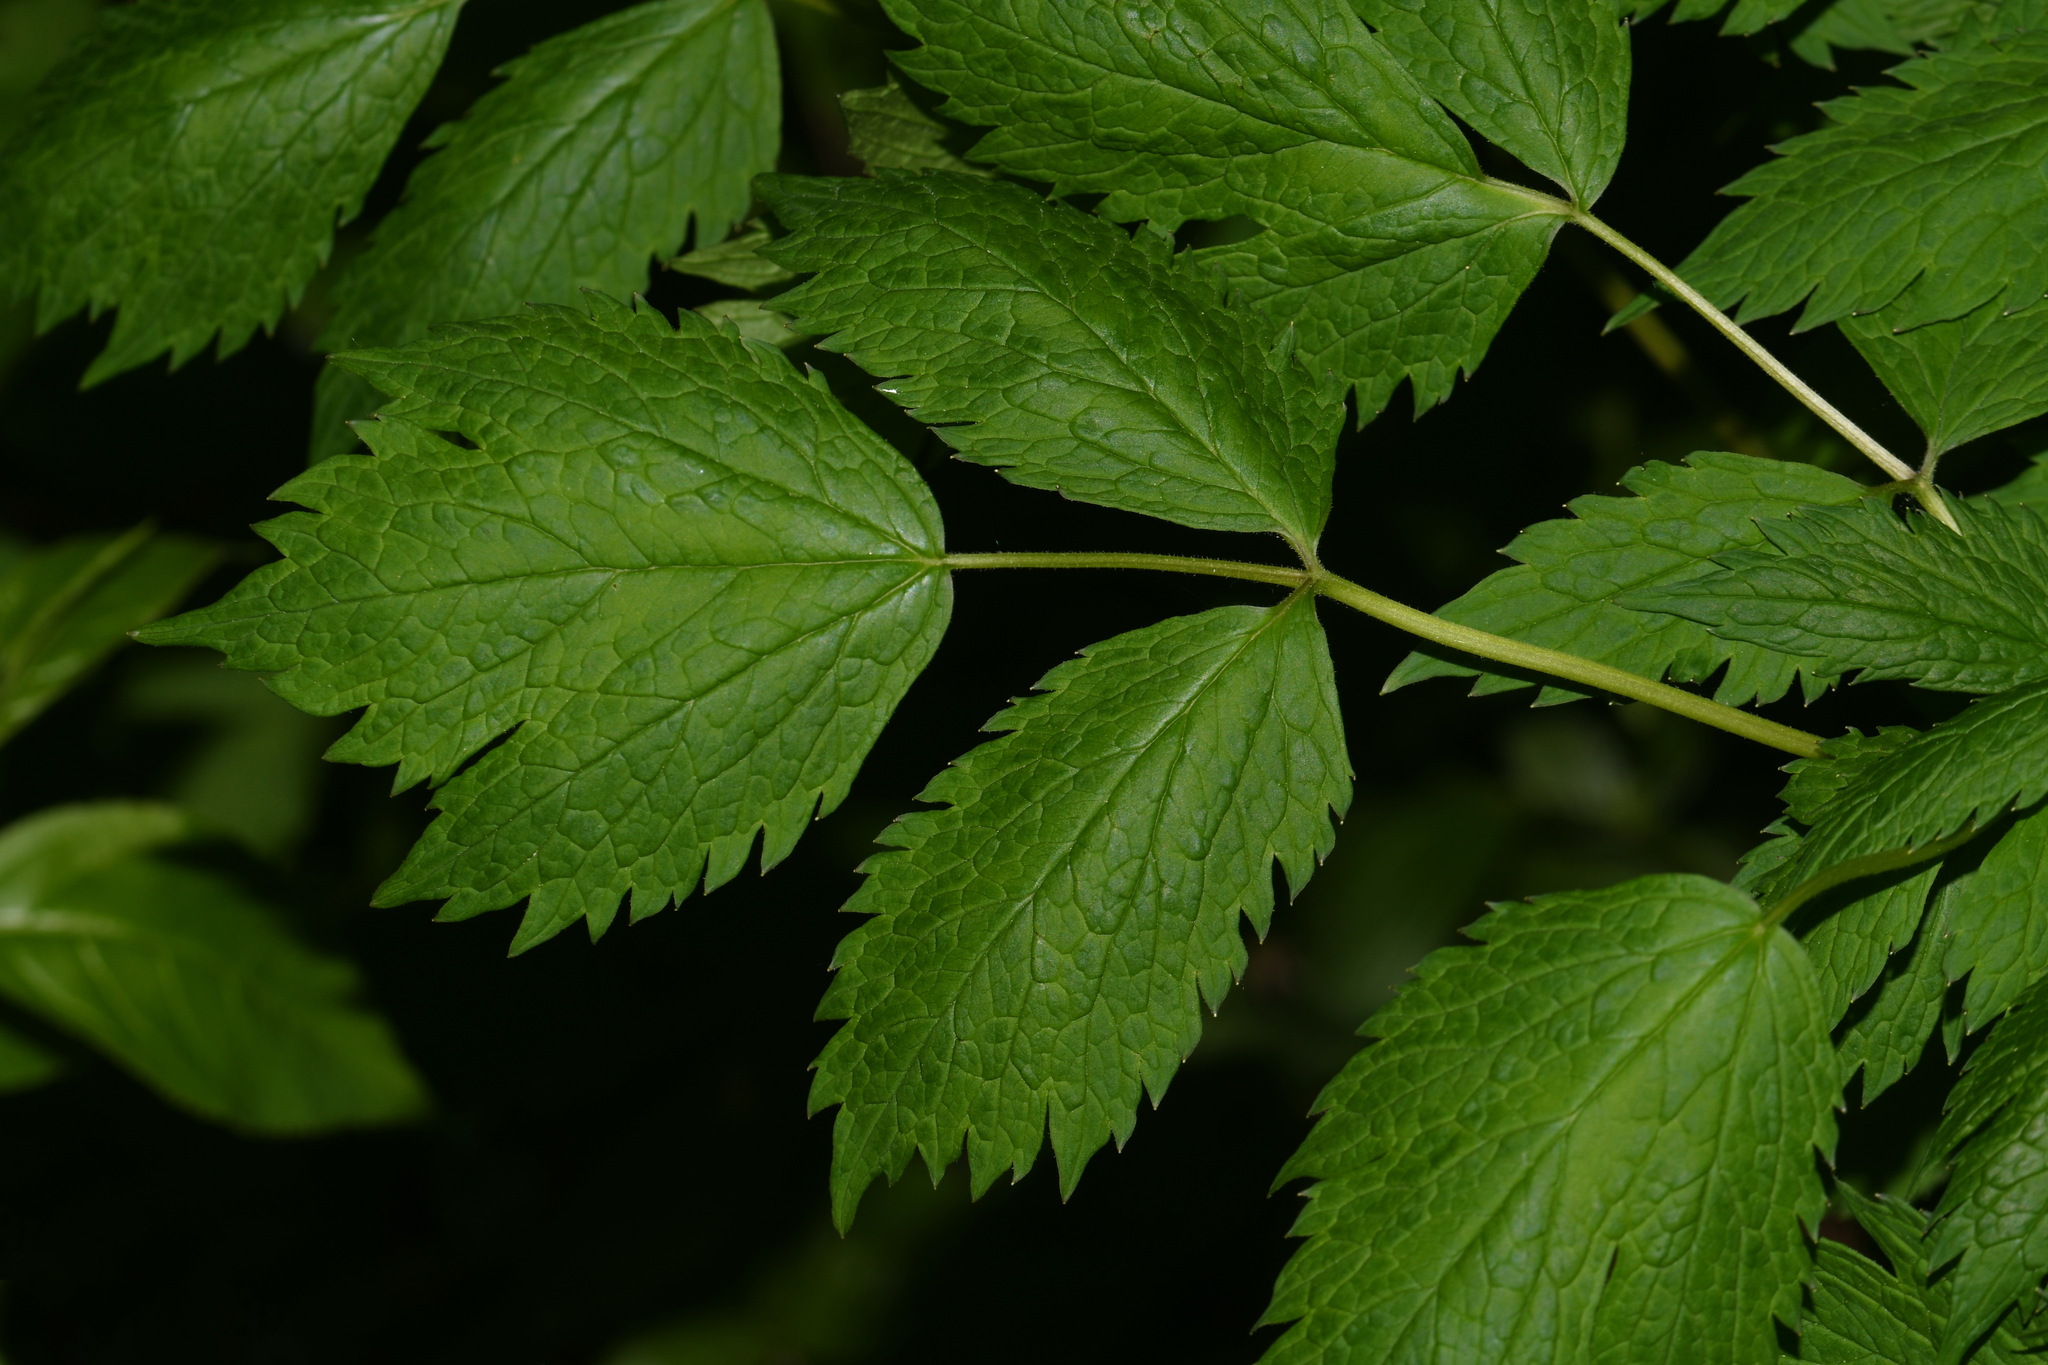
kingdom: Plantae
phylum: Tracheophyta
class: Magnoliopsida
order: Ranunculales
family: Ranunculaceae
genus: Actaea
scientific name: Actaea rubra
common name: Red baneberry
